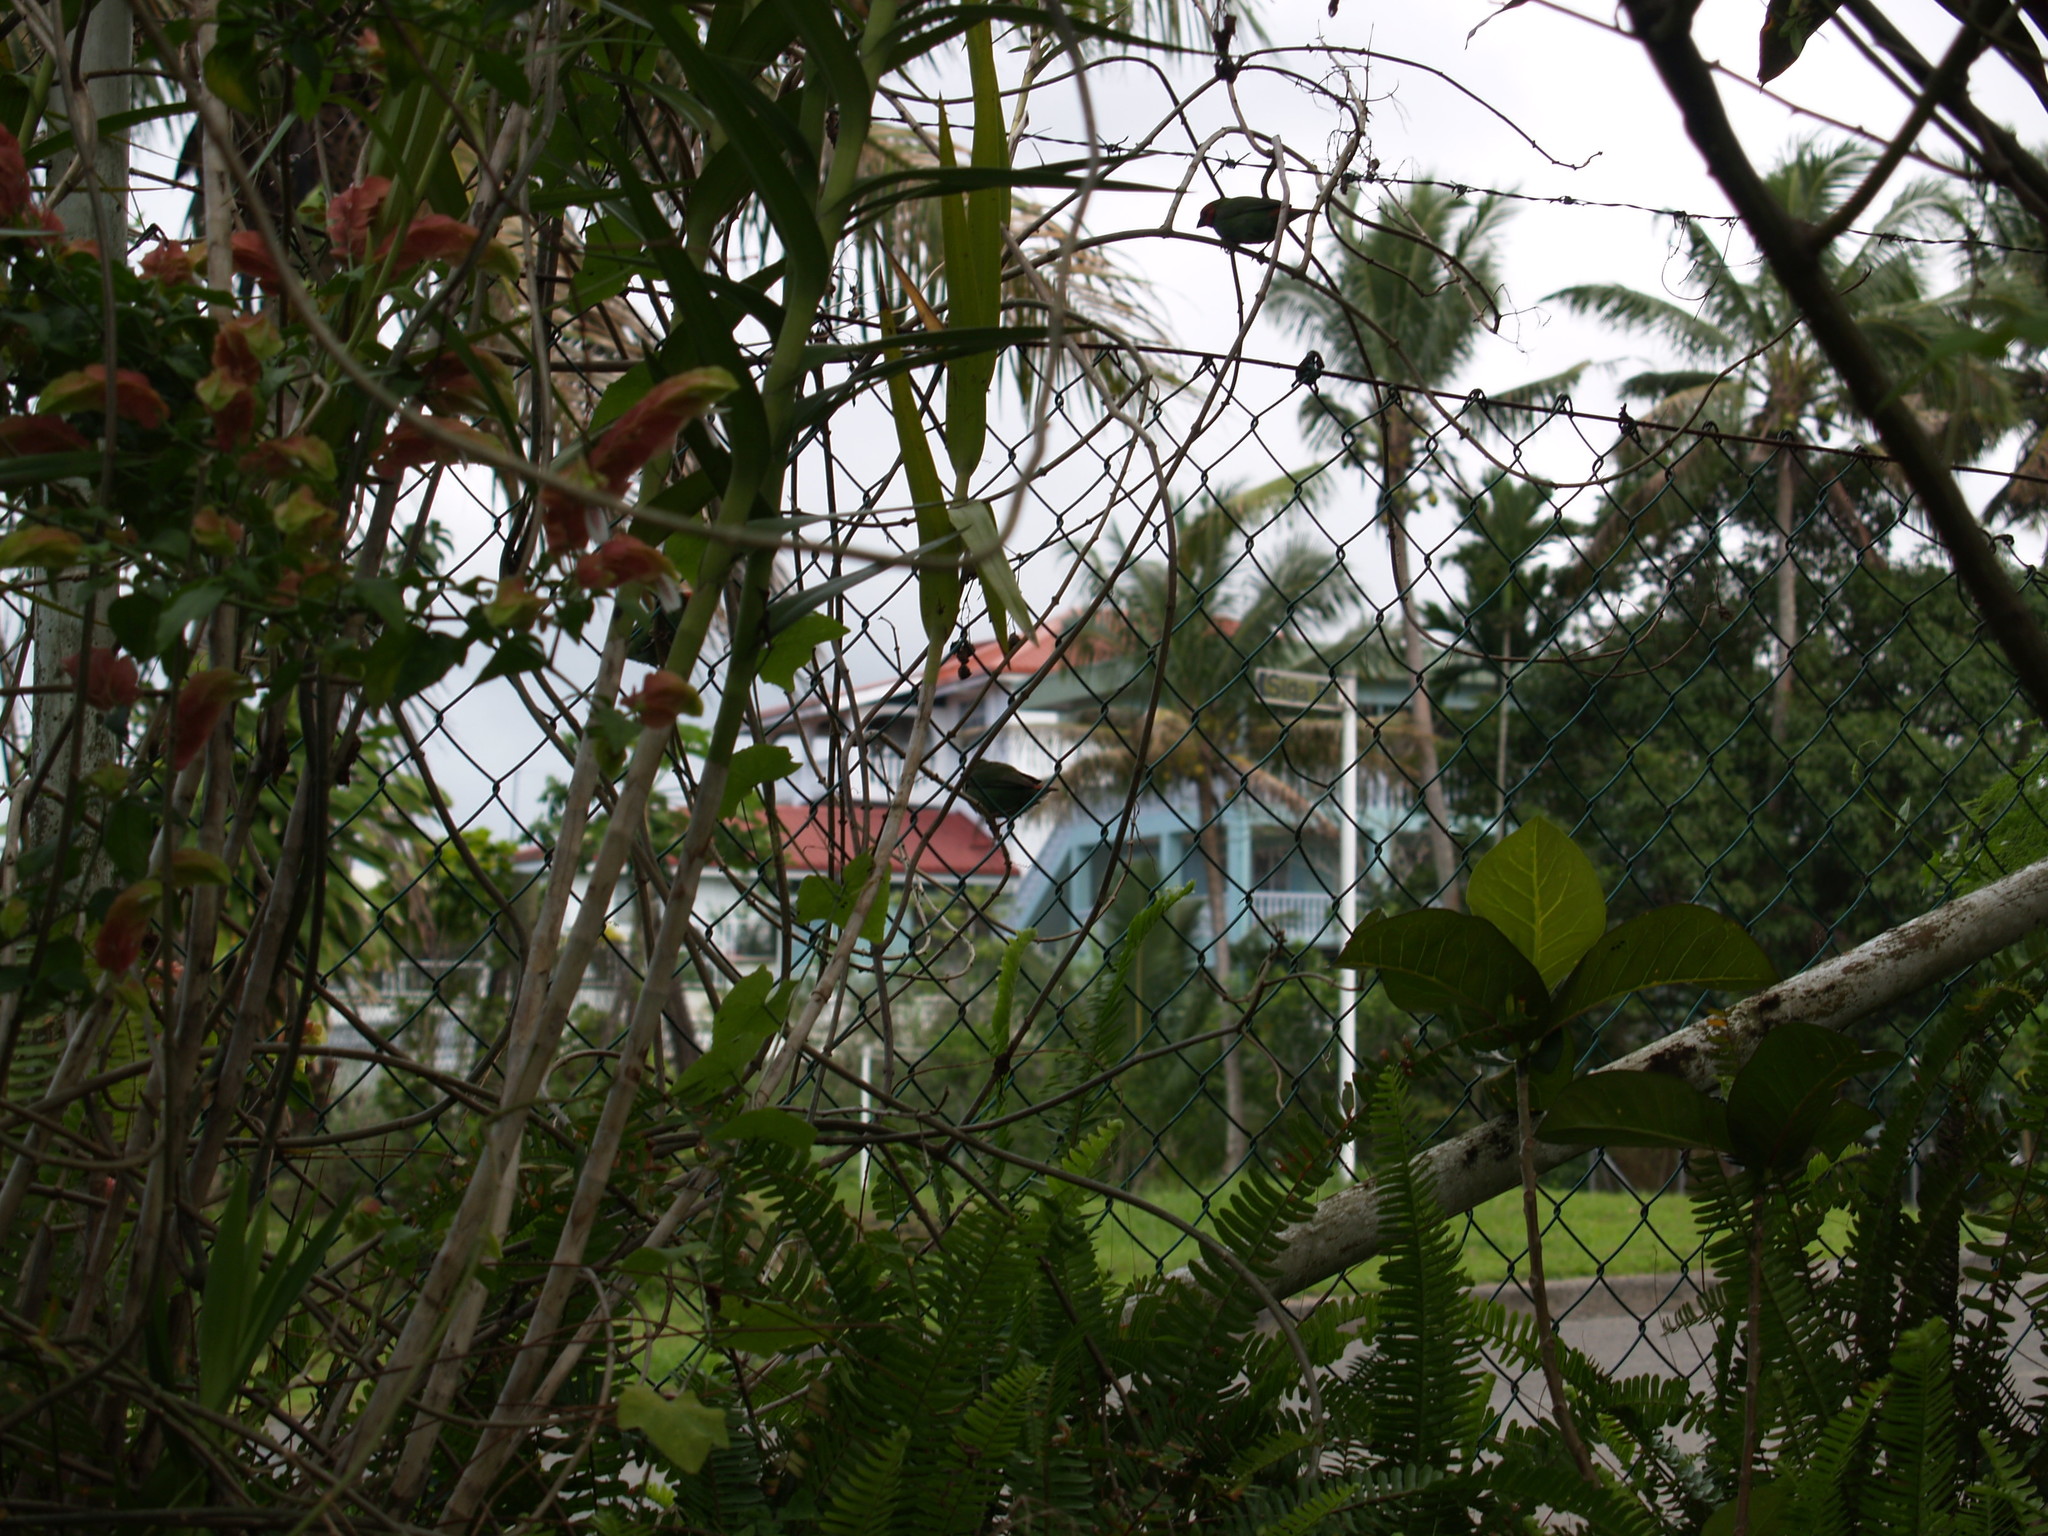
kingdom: Animalia
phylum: Chordata
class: Aves
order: Passeriformes
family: Estrildidae
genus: Erythrura
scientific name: Erythrura pealii
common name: Fiji parrotfinch
